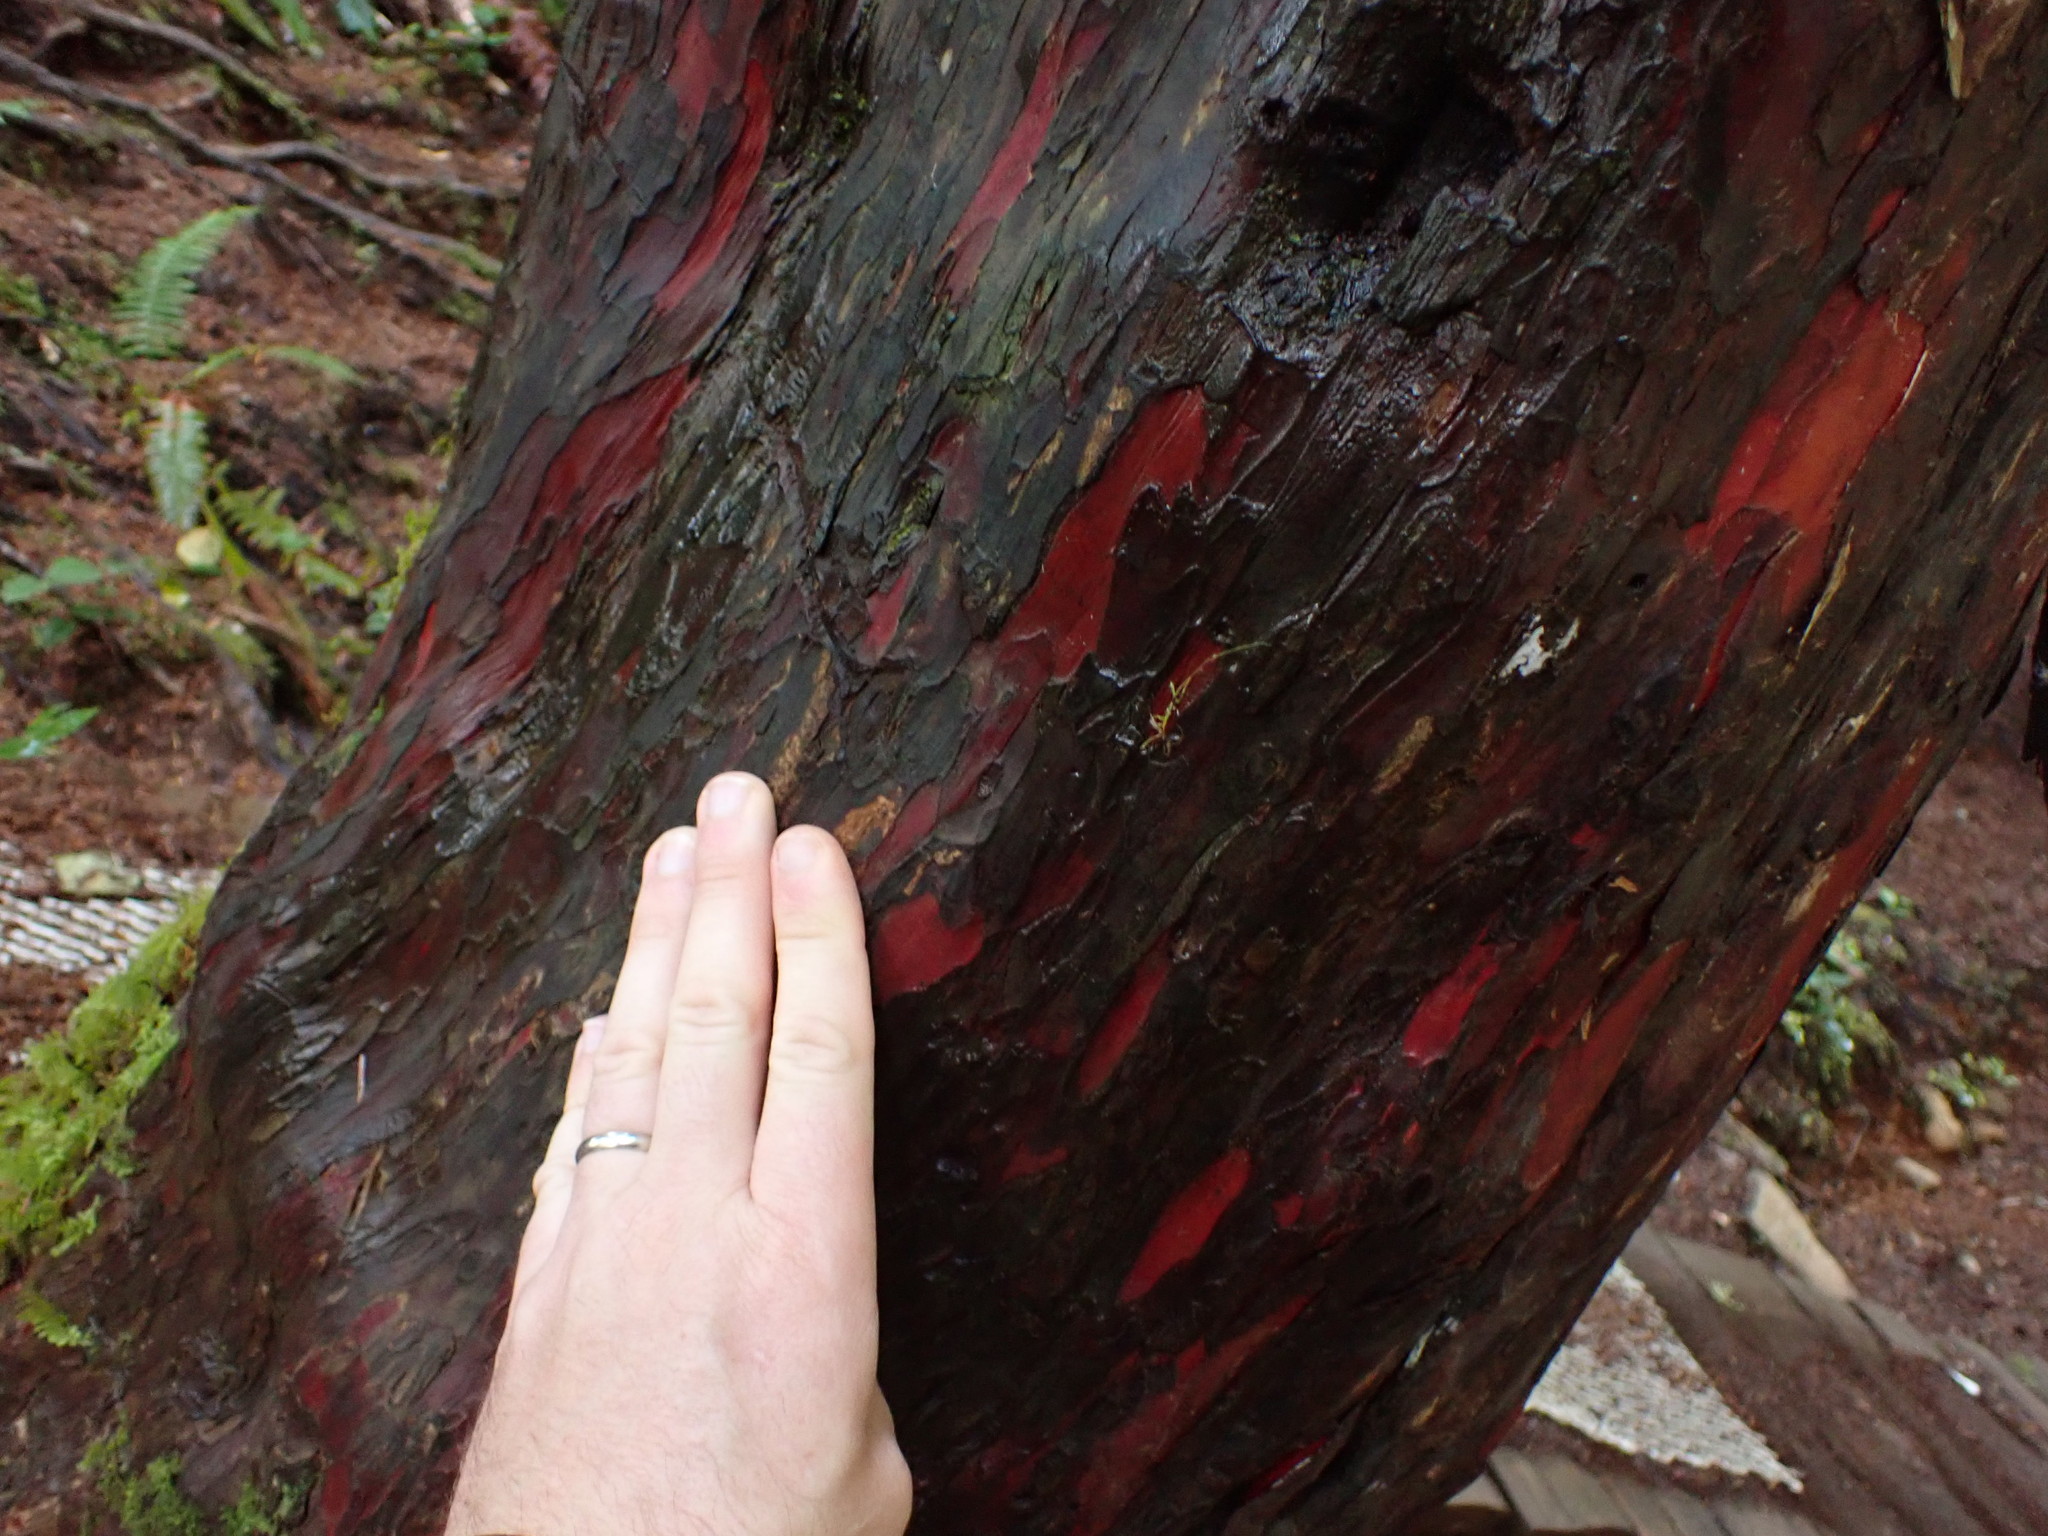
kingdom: Plantae
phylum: Tracheophyta
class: Pinopsida
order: Pinales
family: Taxaceae
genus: Taxus
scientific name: Taxus brevifolia
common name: Pacific yew
